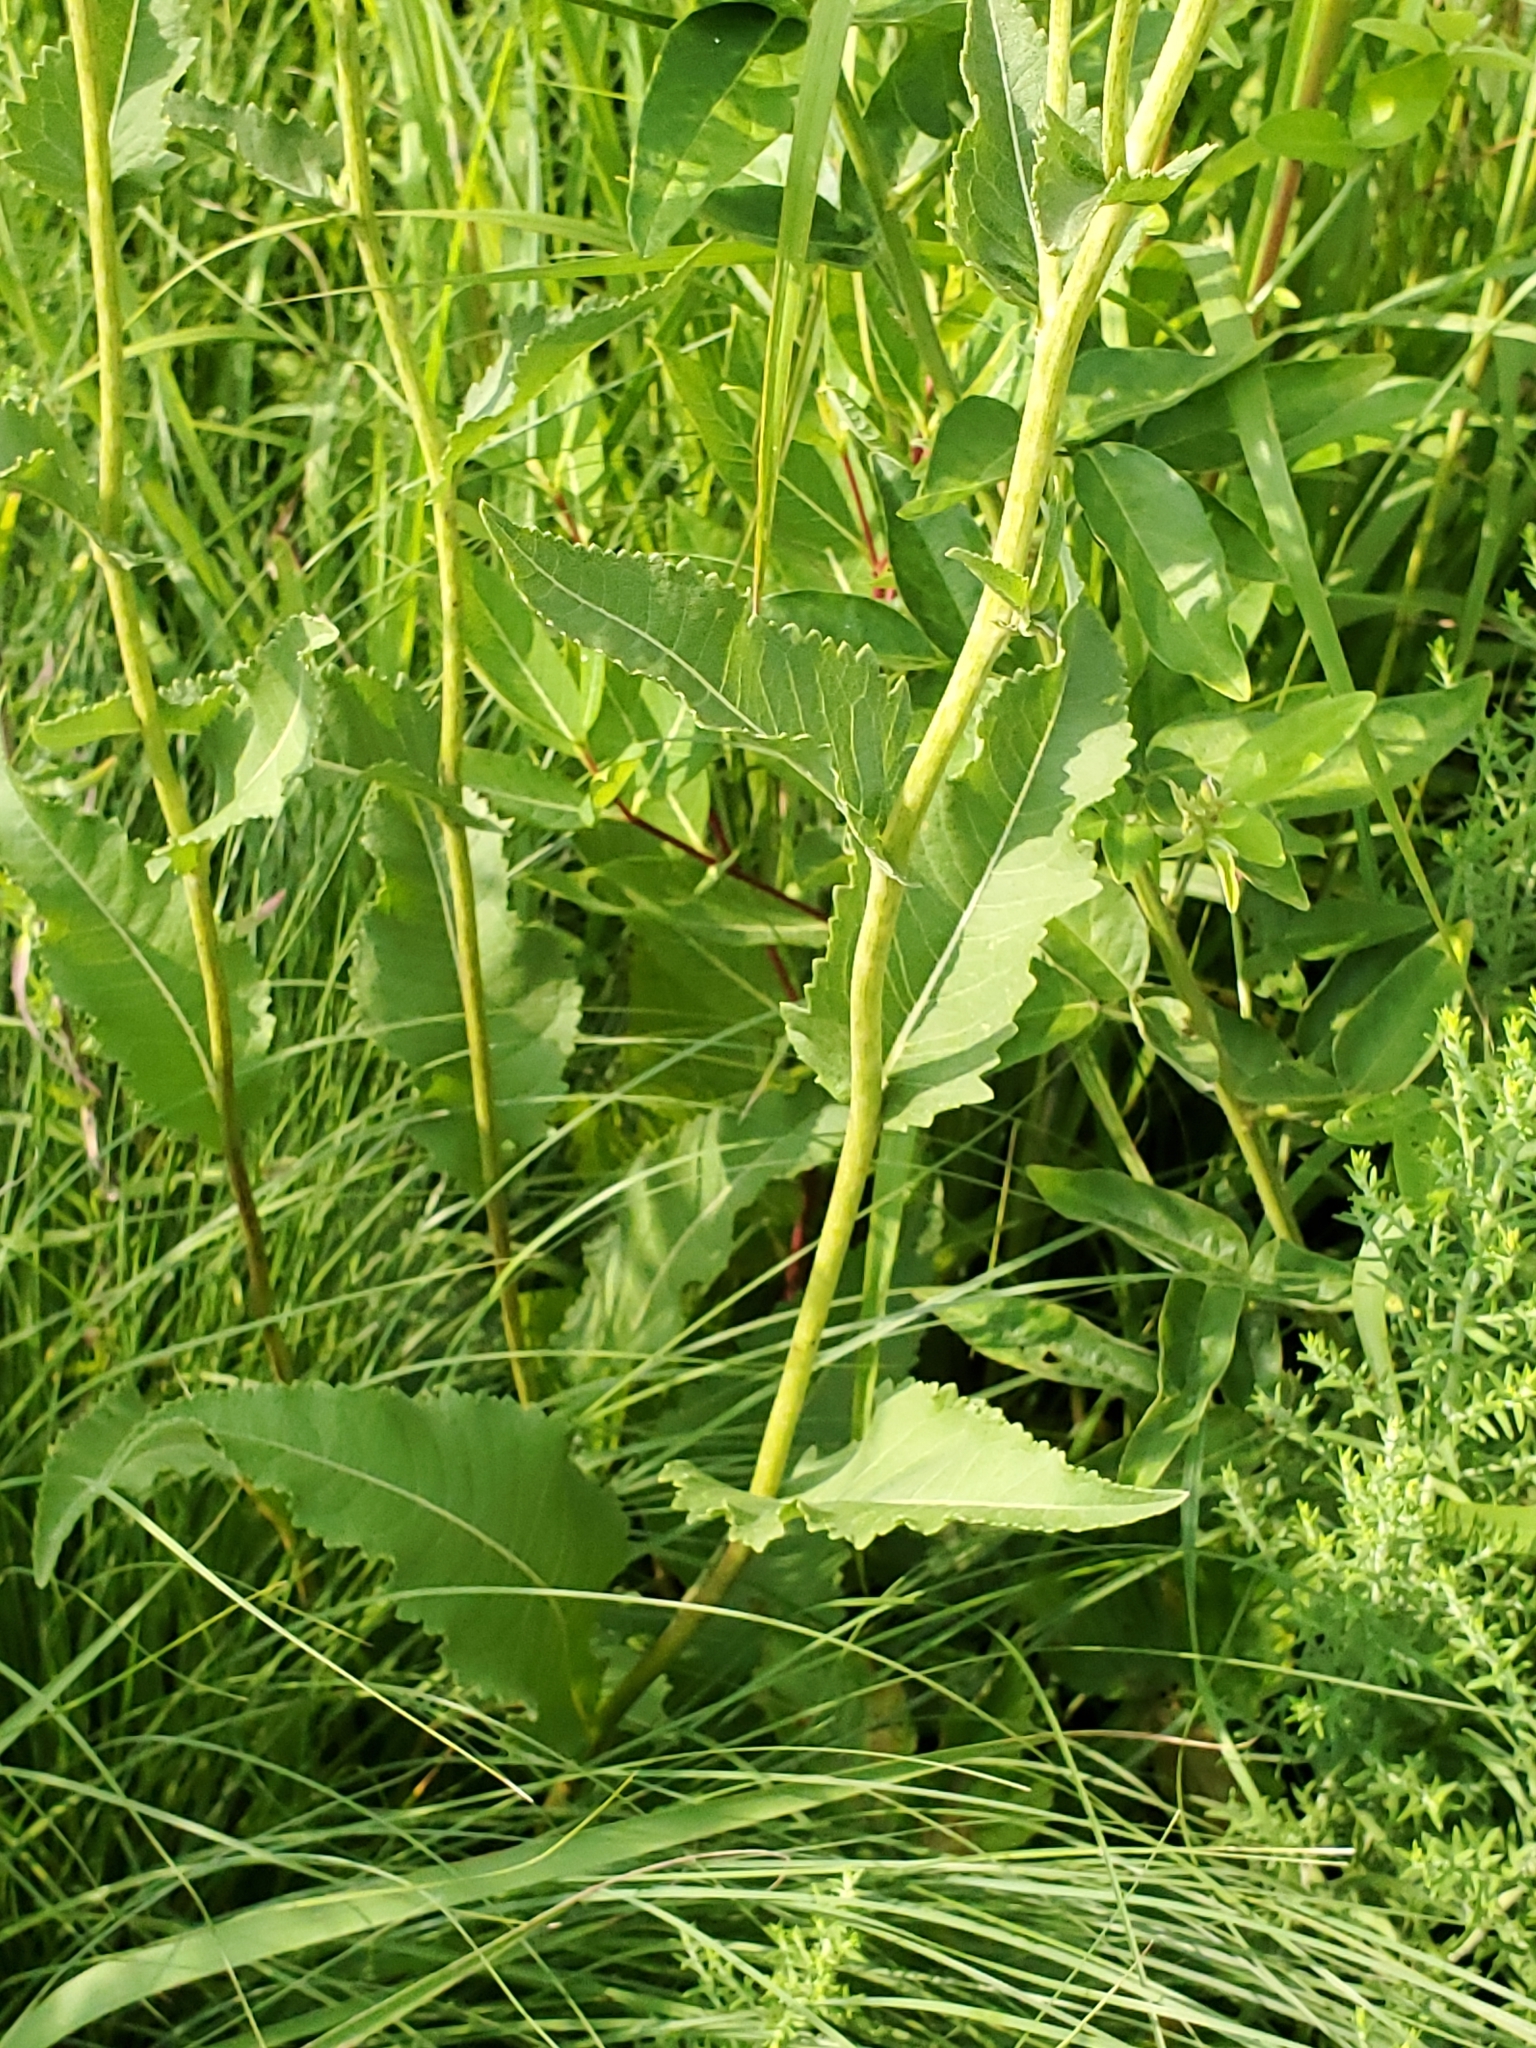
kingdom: Plantae
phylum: Tracheophyta
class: Magnoliopsida
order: Asterales
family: Asteraceae
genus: Parthenium
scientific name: Parthenium integrifolium
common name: American feverfew
